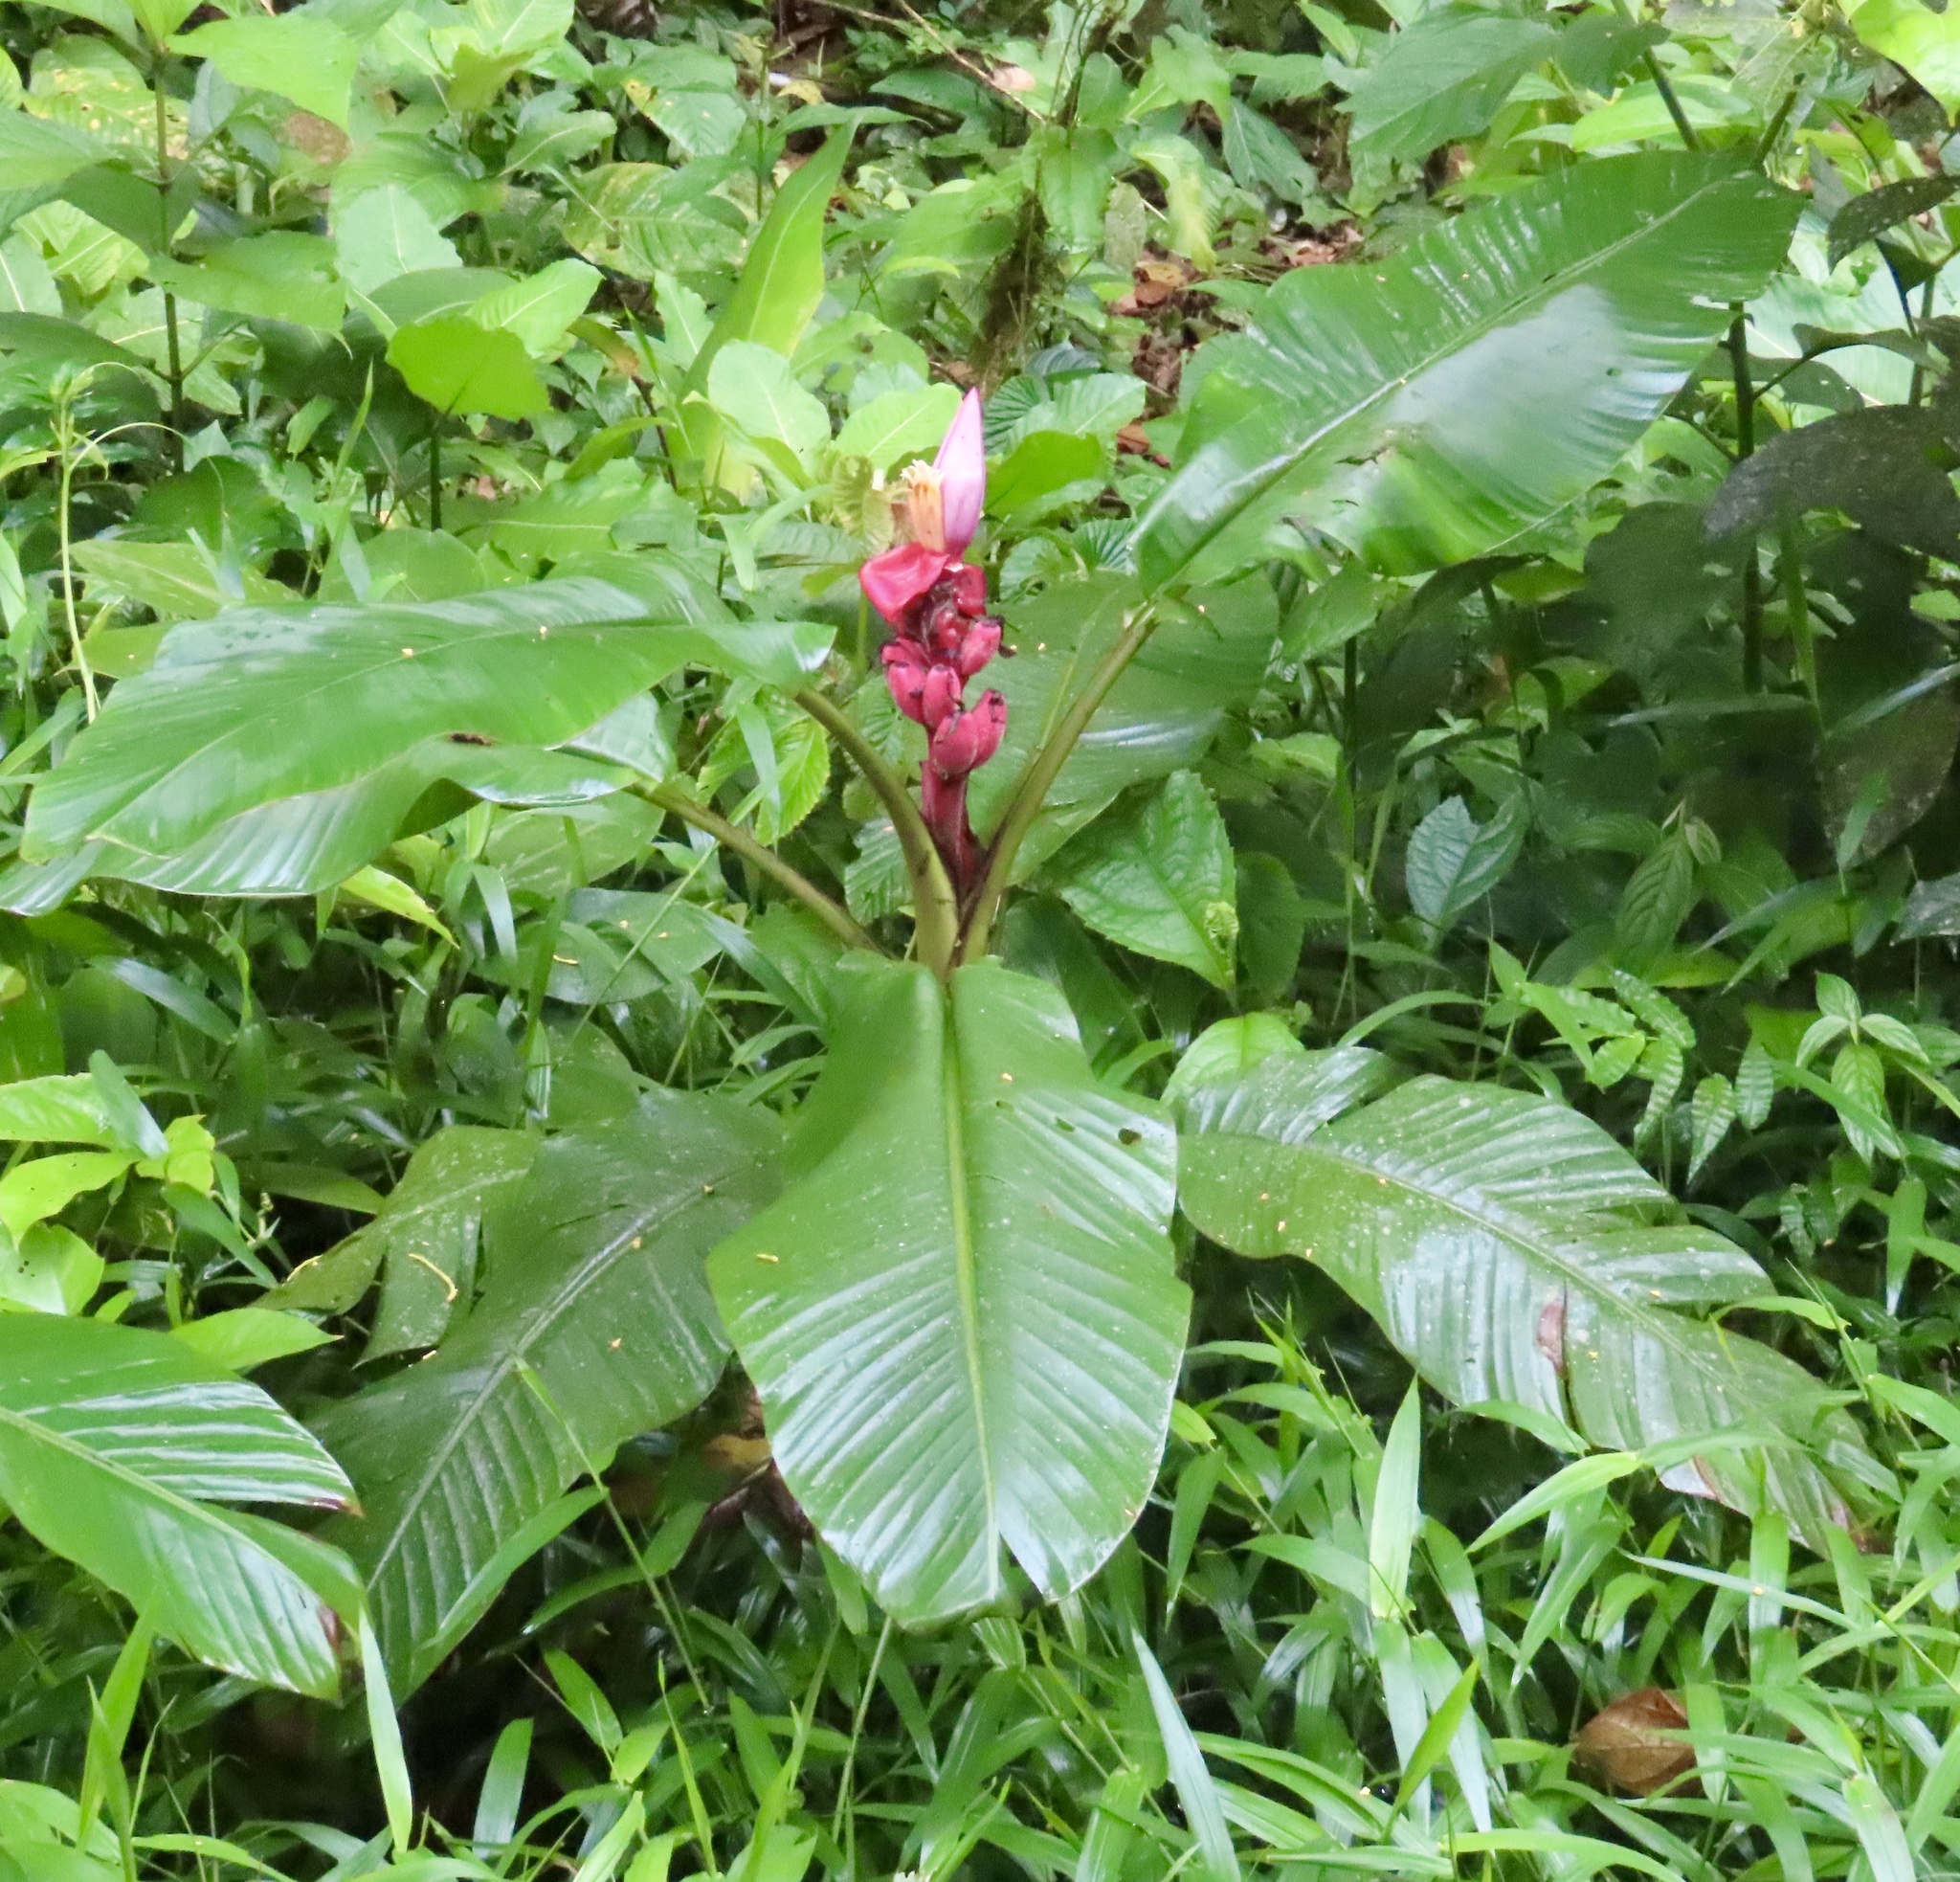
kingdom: Plantae
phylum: Tracheophyta
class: Liliopsida
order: Zingiberales
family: Musaceae
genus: Musa
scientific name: Musa velutina
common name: Pink velvet banana
